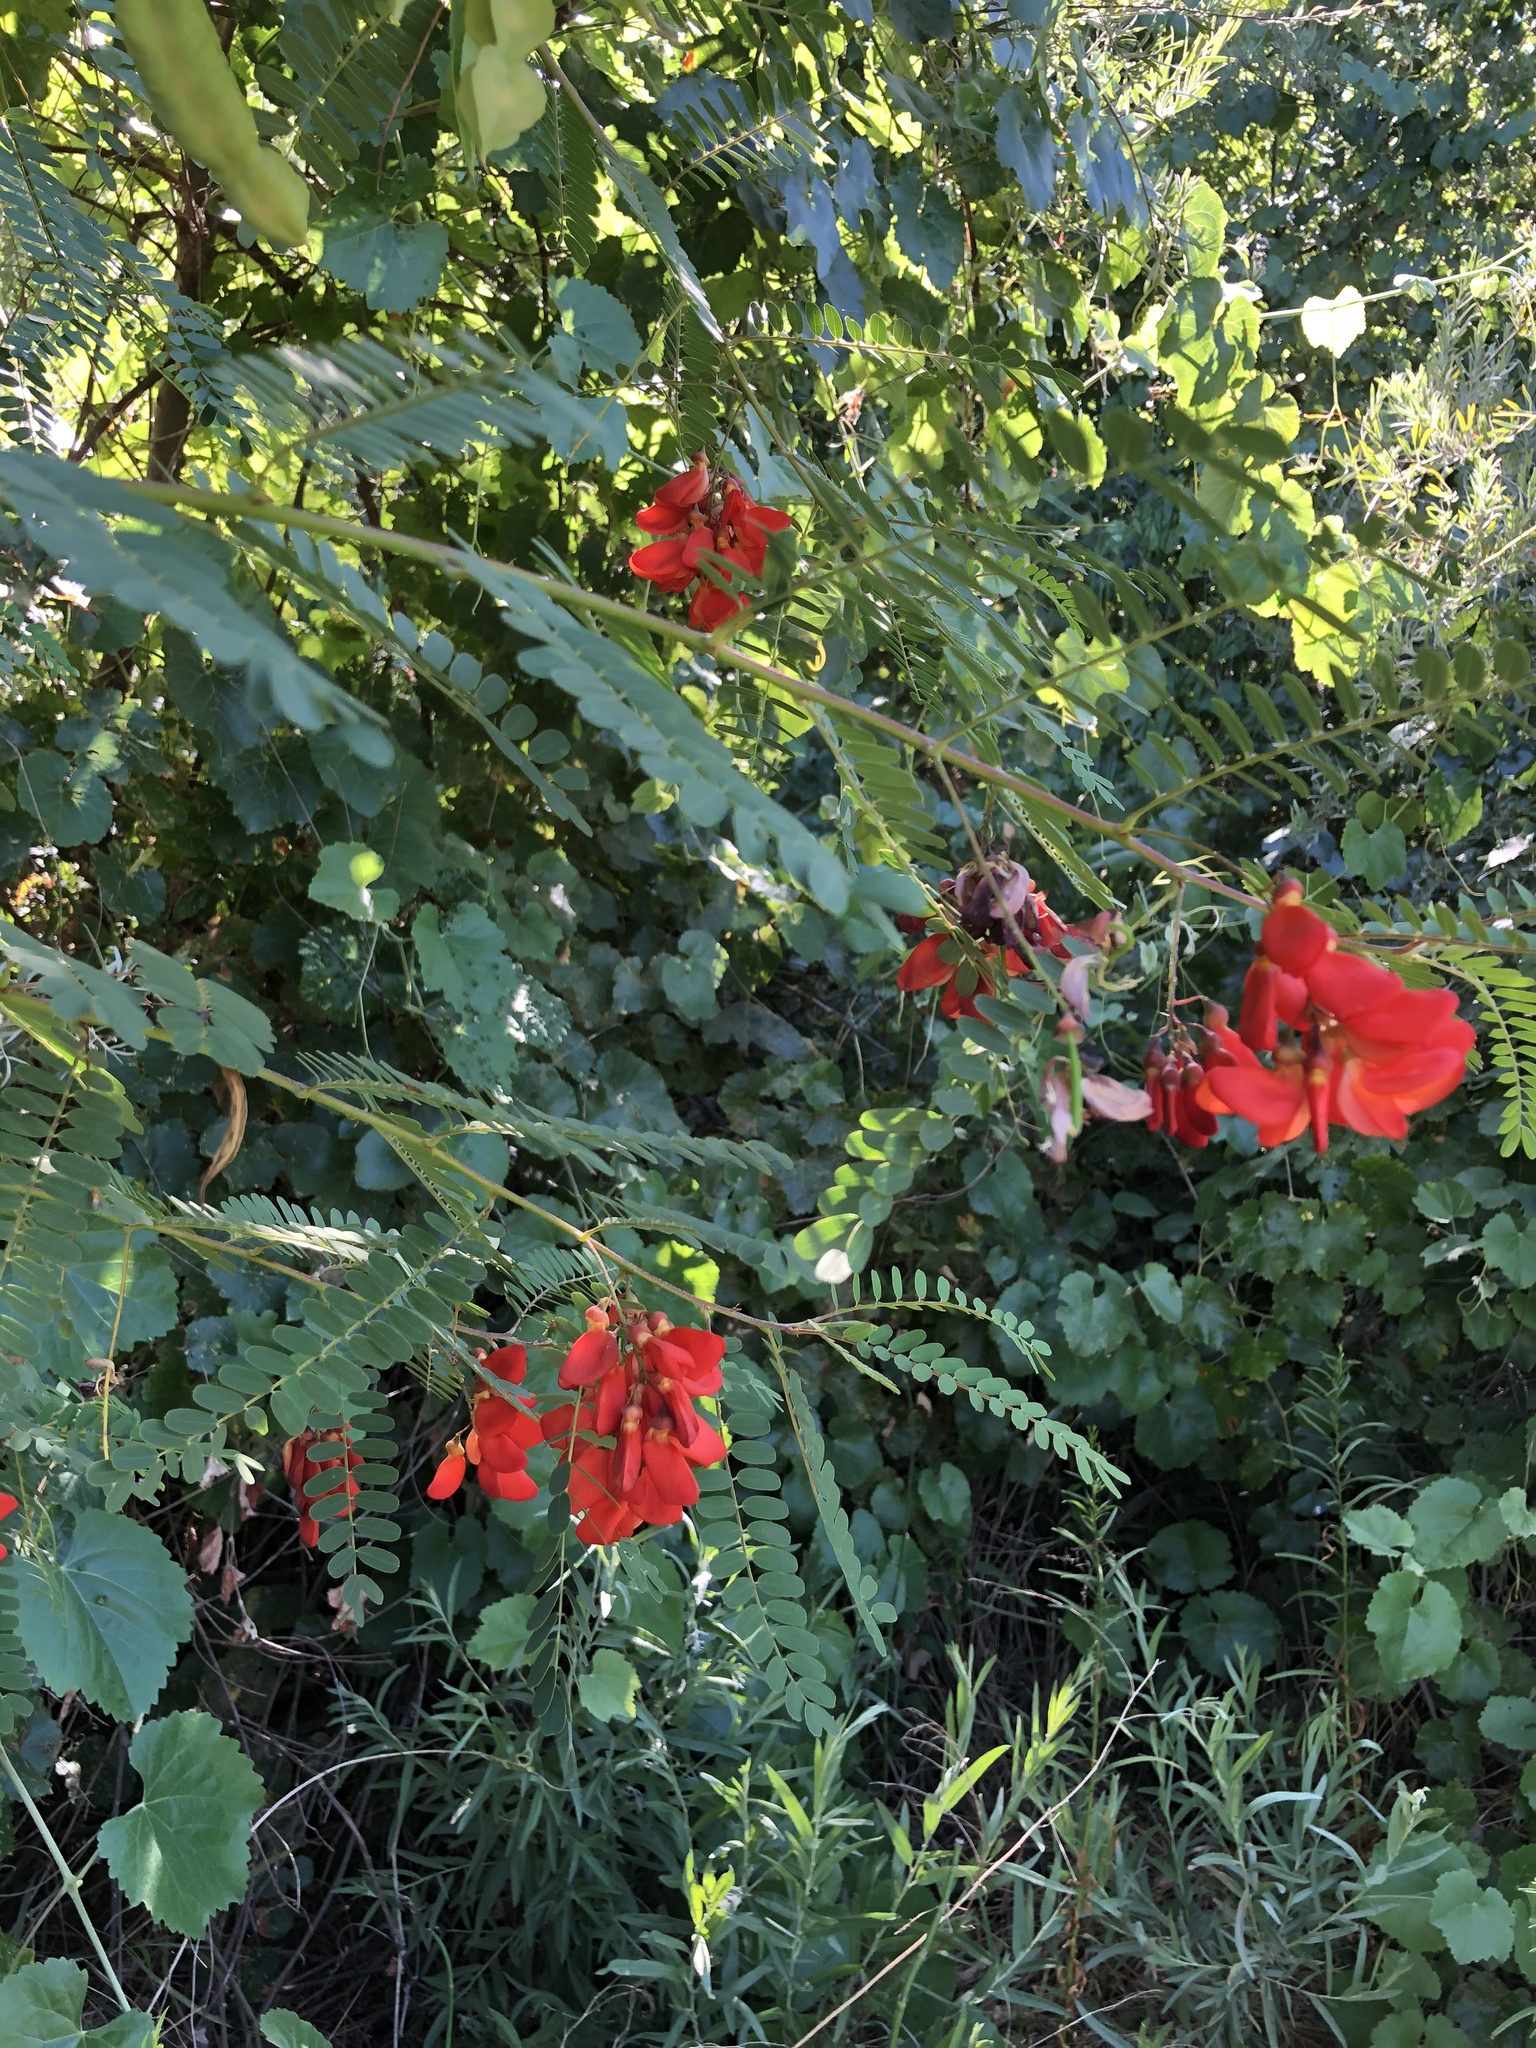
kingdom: Plantae
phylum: Tracheophyta
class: Magnoliopsida
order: Fabales
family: Fabaceae
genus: Sesbania
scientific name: Sesbania punicea
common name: Rattlebox
